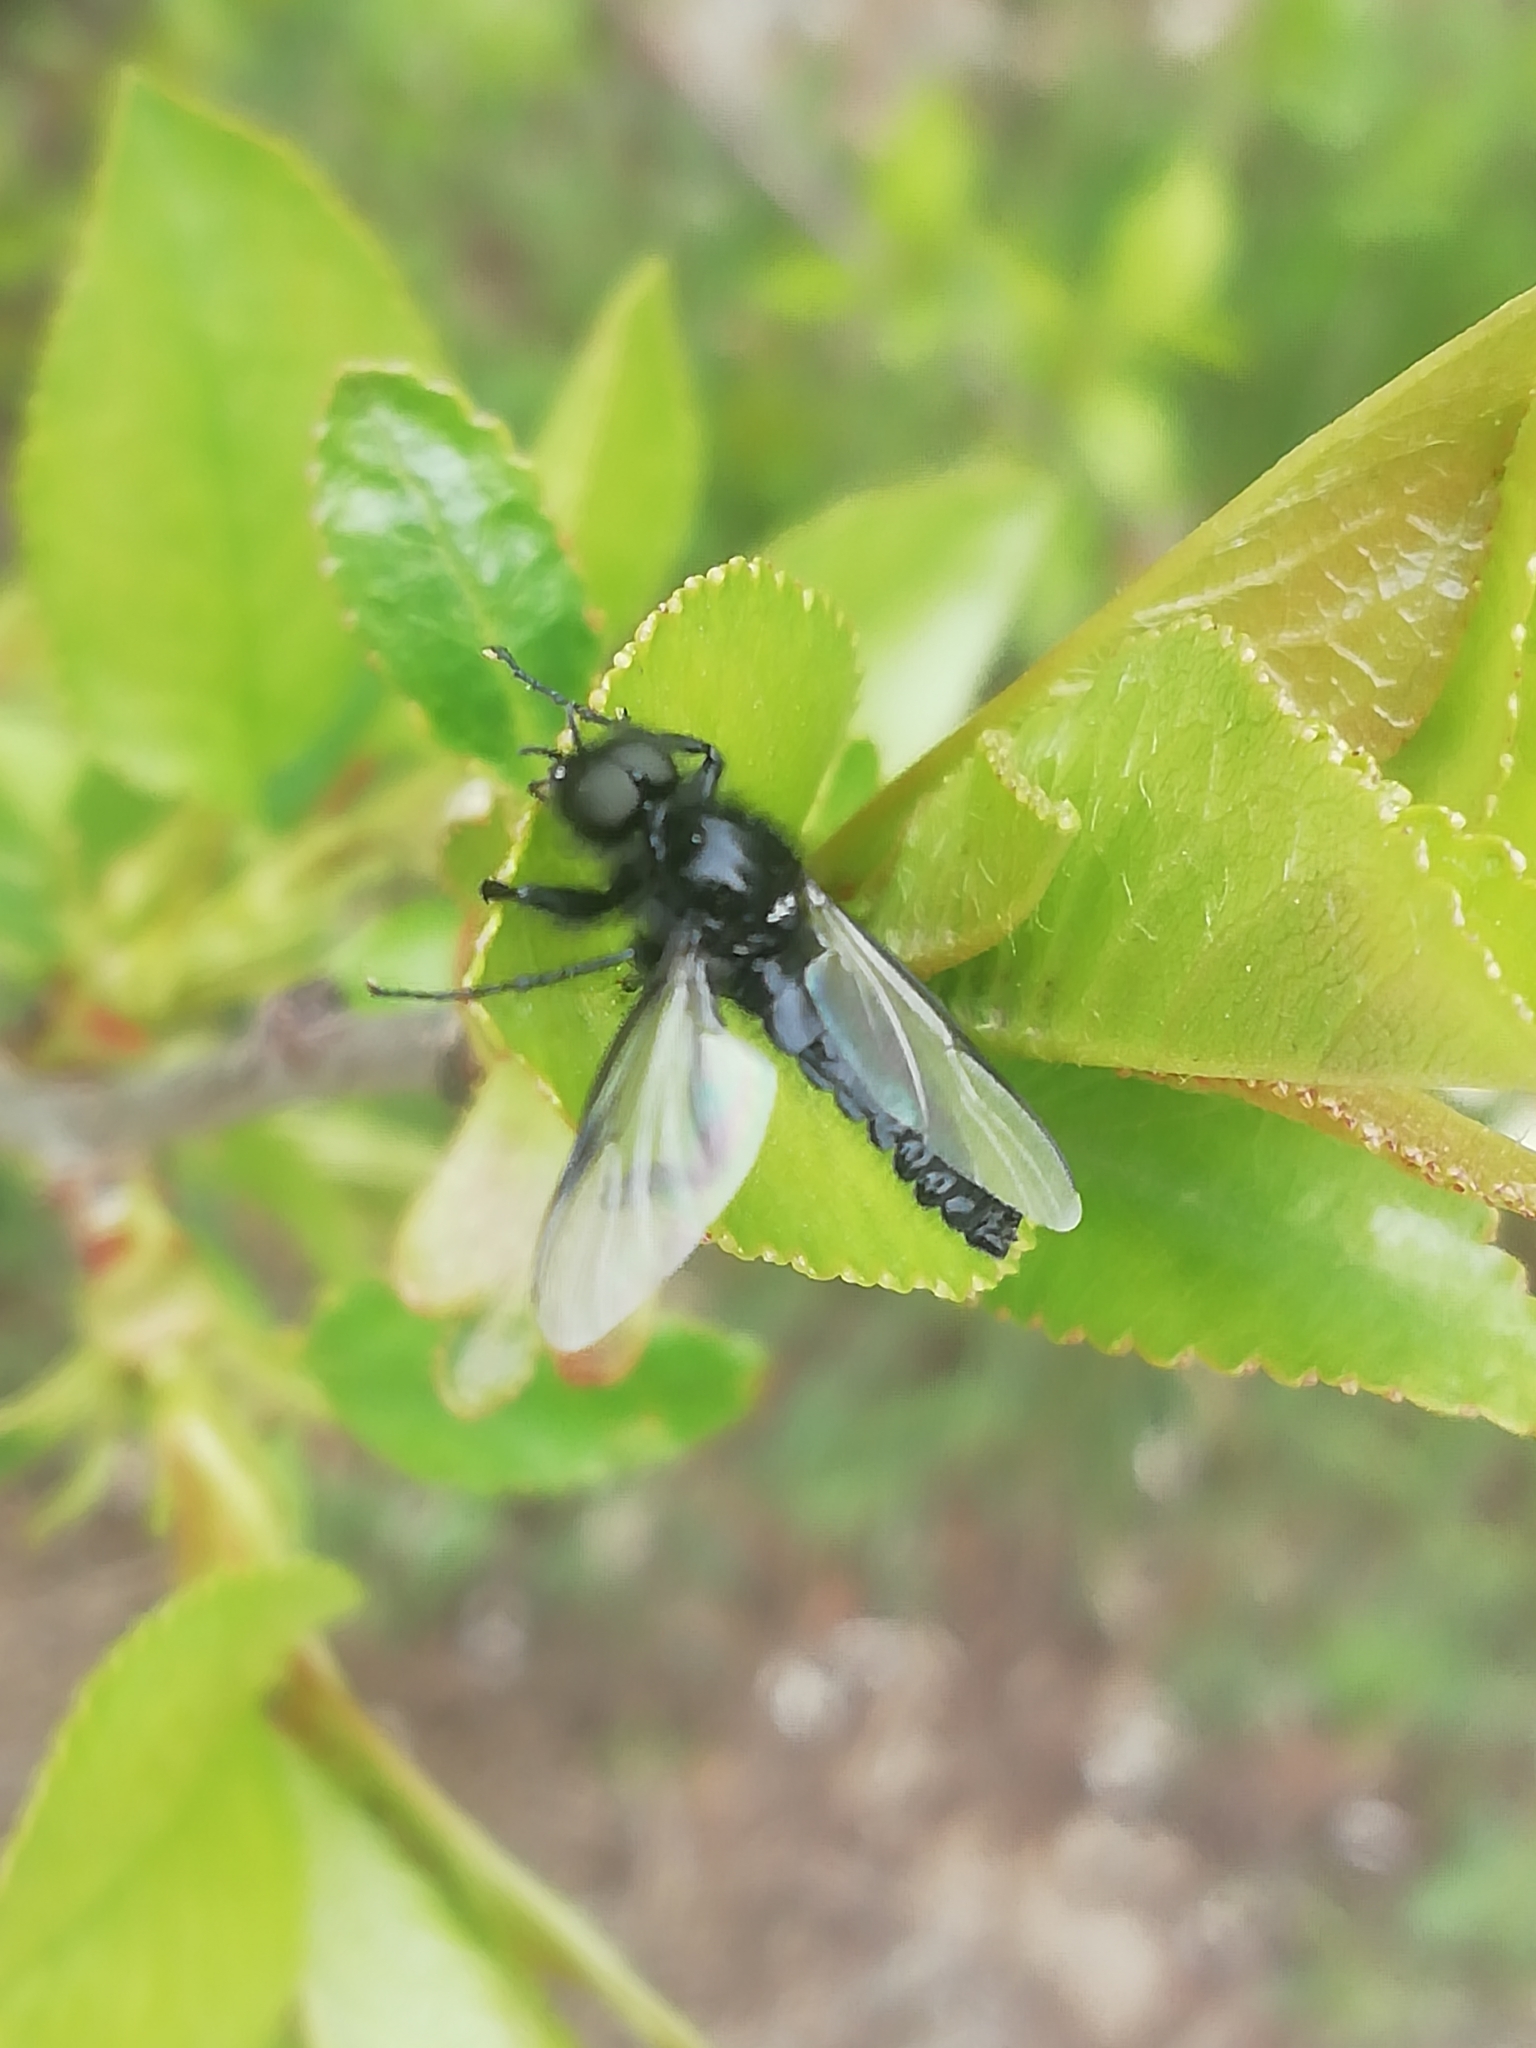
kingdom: Animalia
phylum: Arthropoda
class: Insecta
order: Diptera
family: Bibionidae
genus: Bibio
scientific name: Bibio marci
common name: St marks fly
